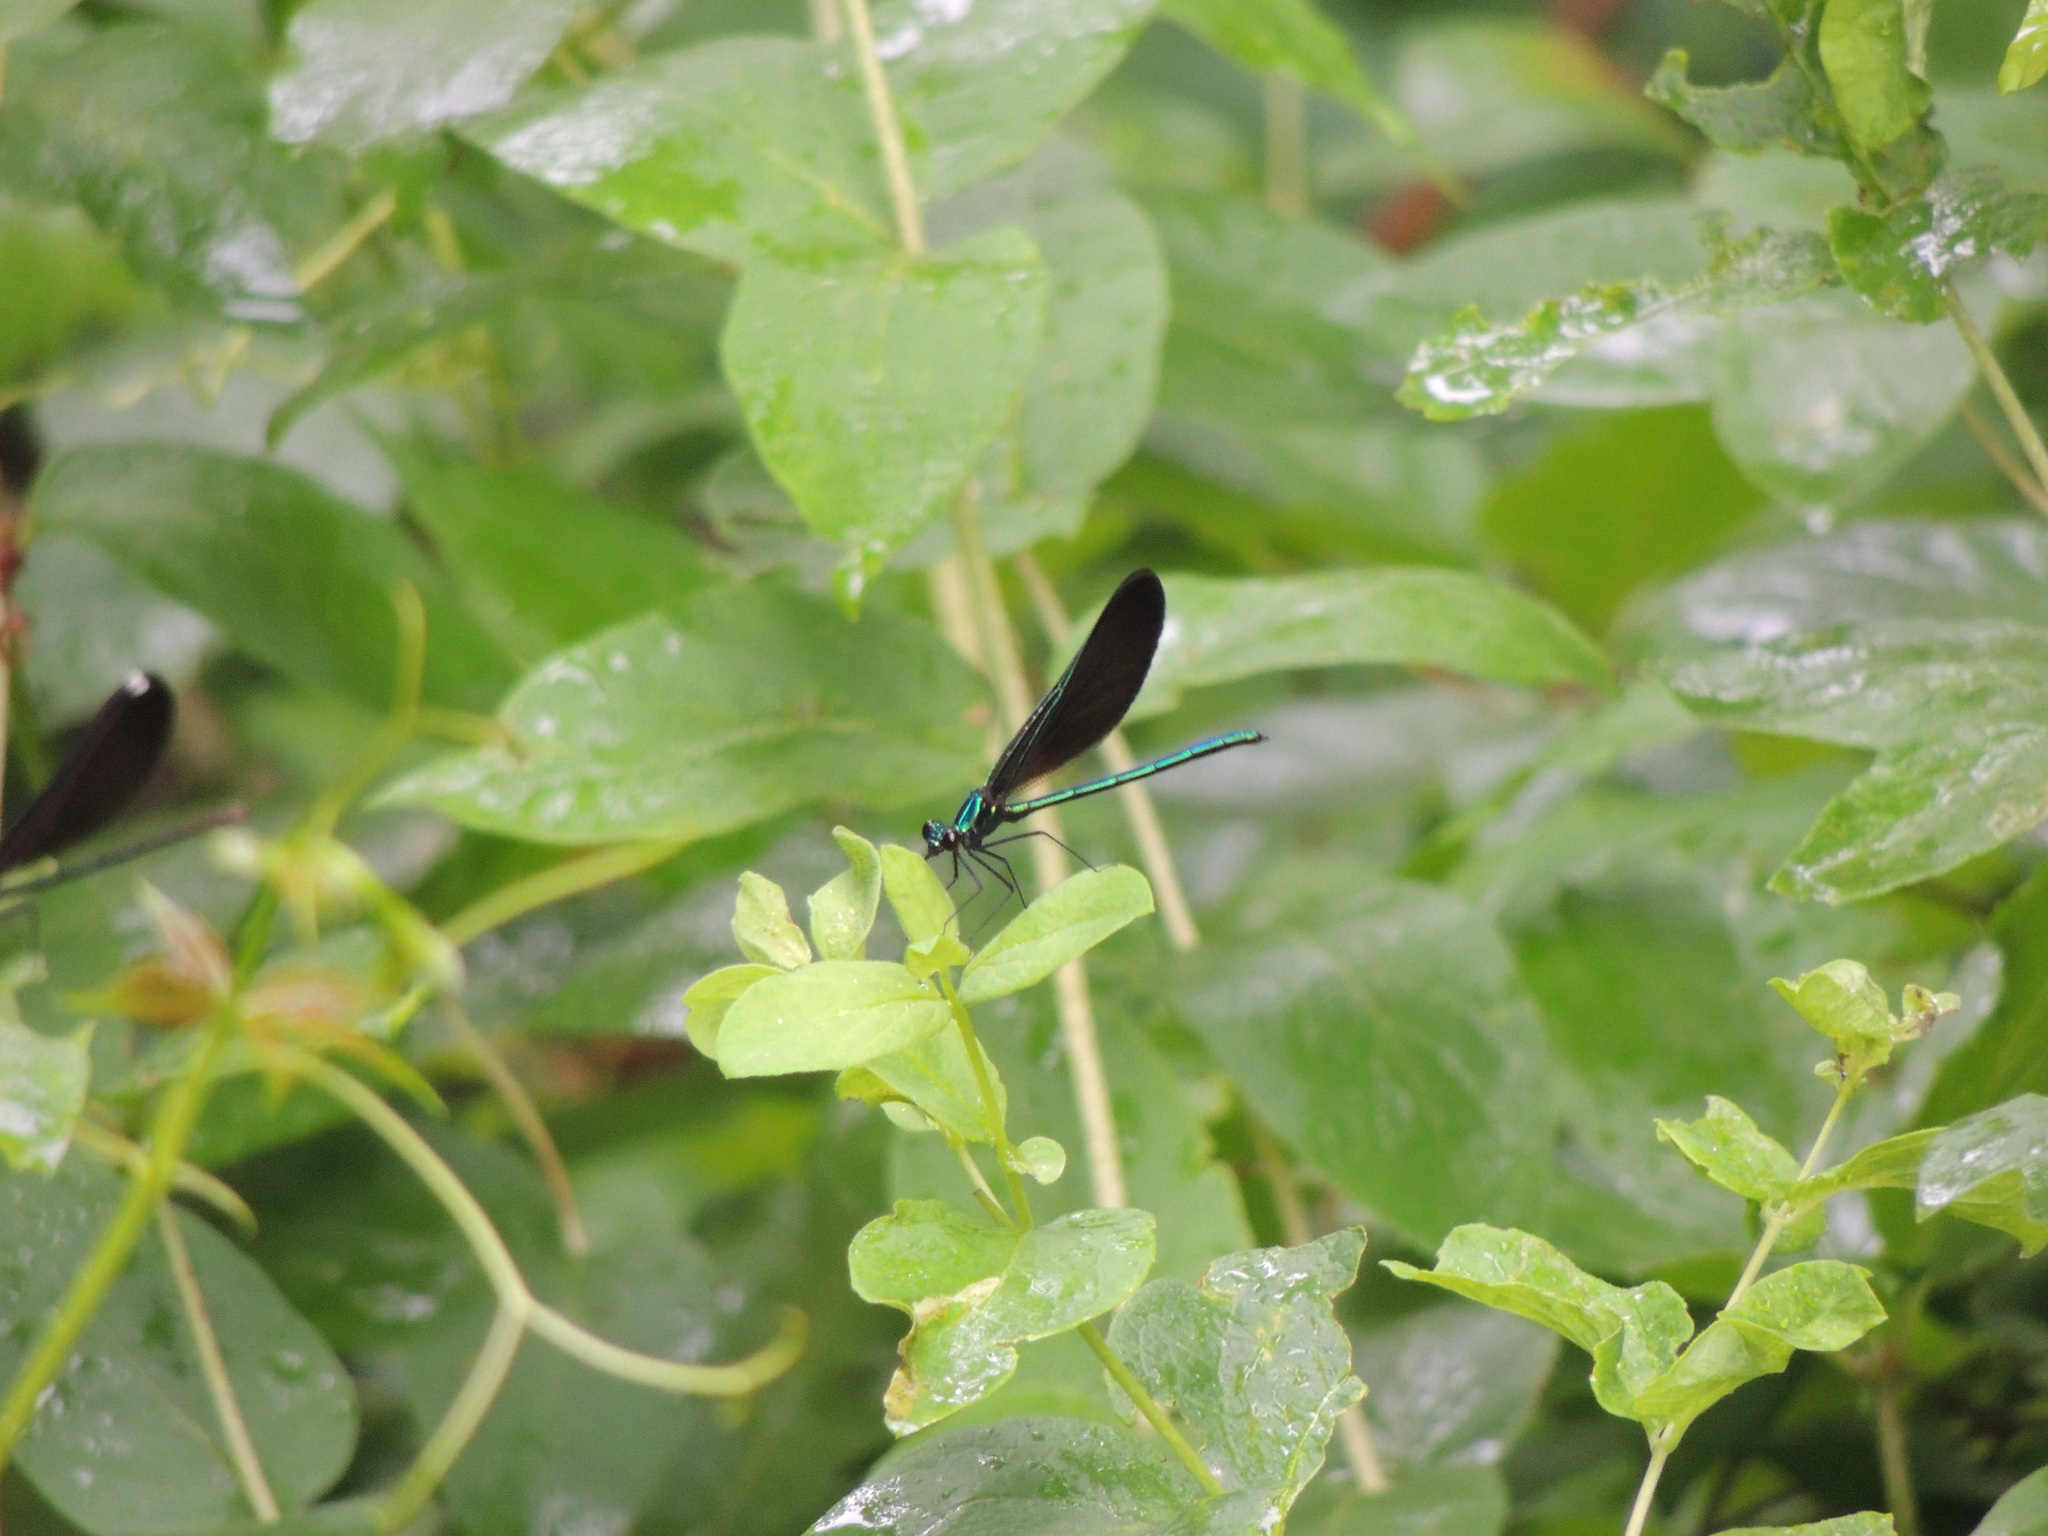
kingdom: Animalia
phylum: Arthropoda
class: Insecta
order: Odonata
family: Calopterygidae
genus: Calopteryx
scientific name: Calopteryx maculata
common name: Ebony jewelwing
